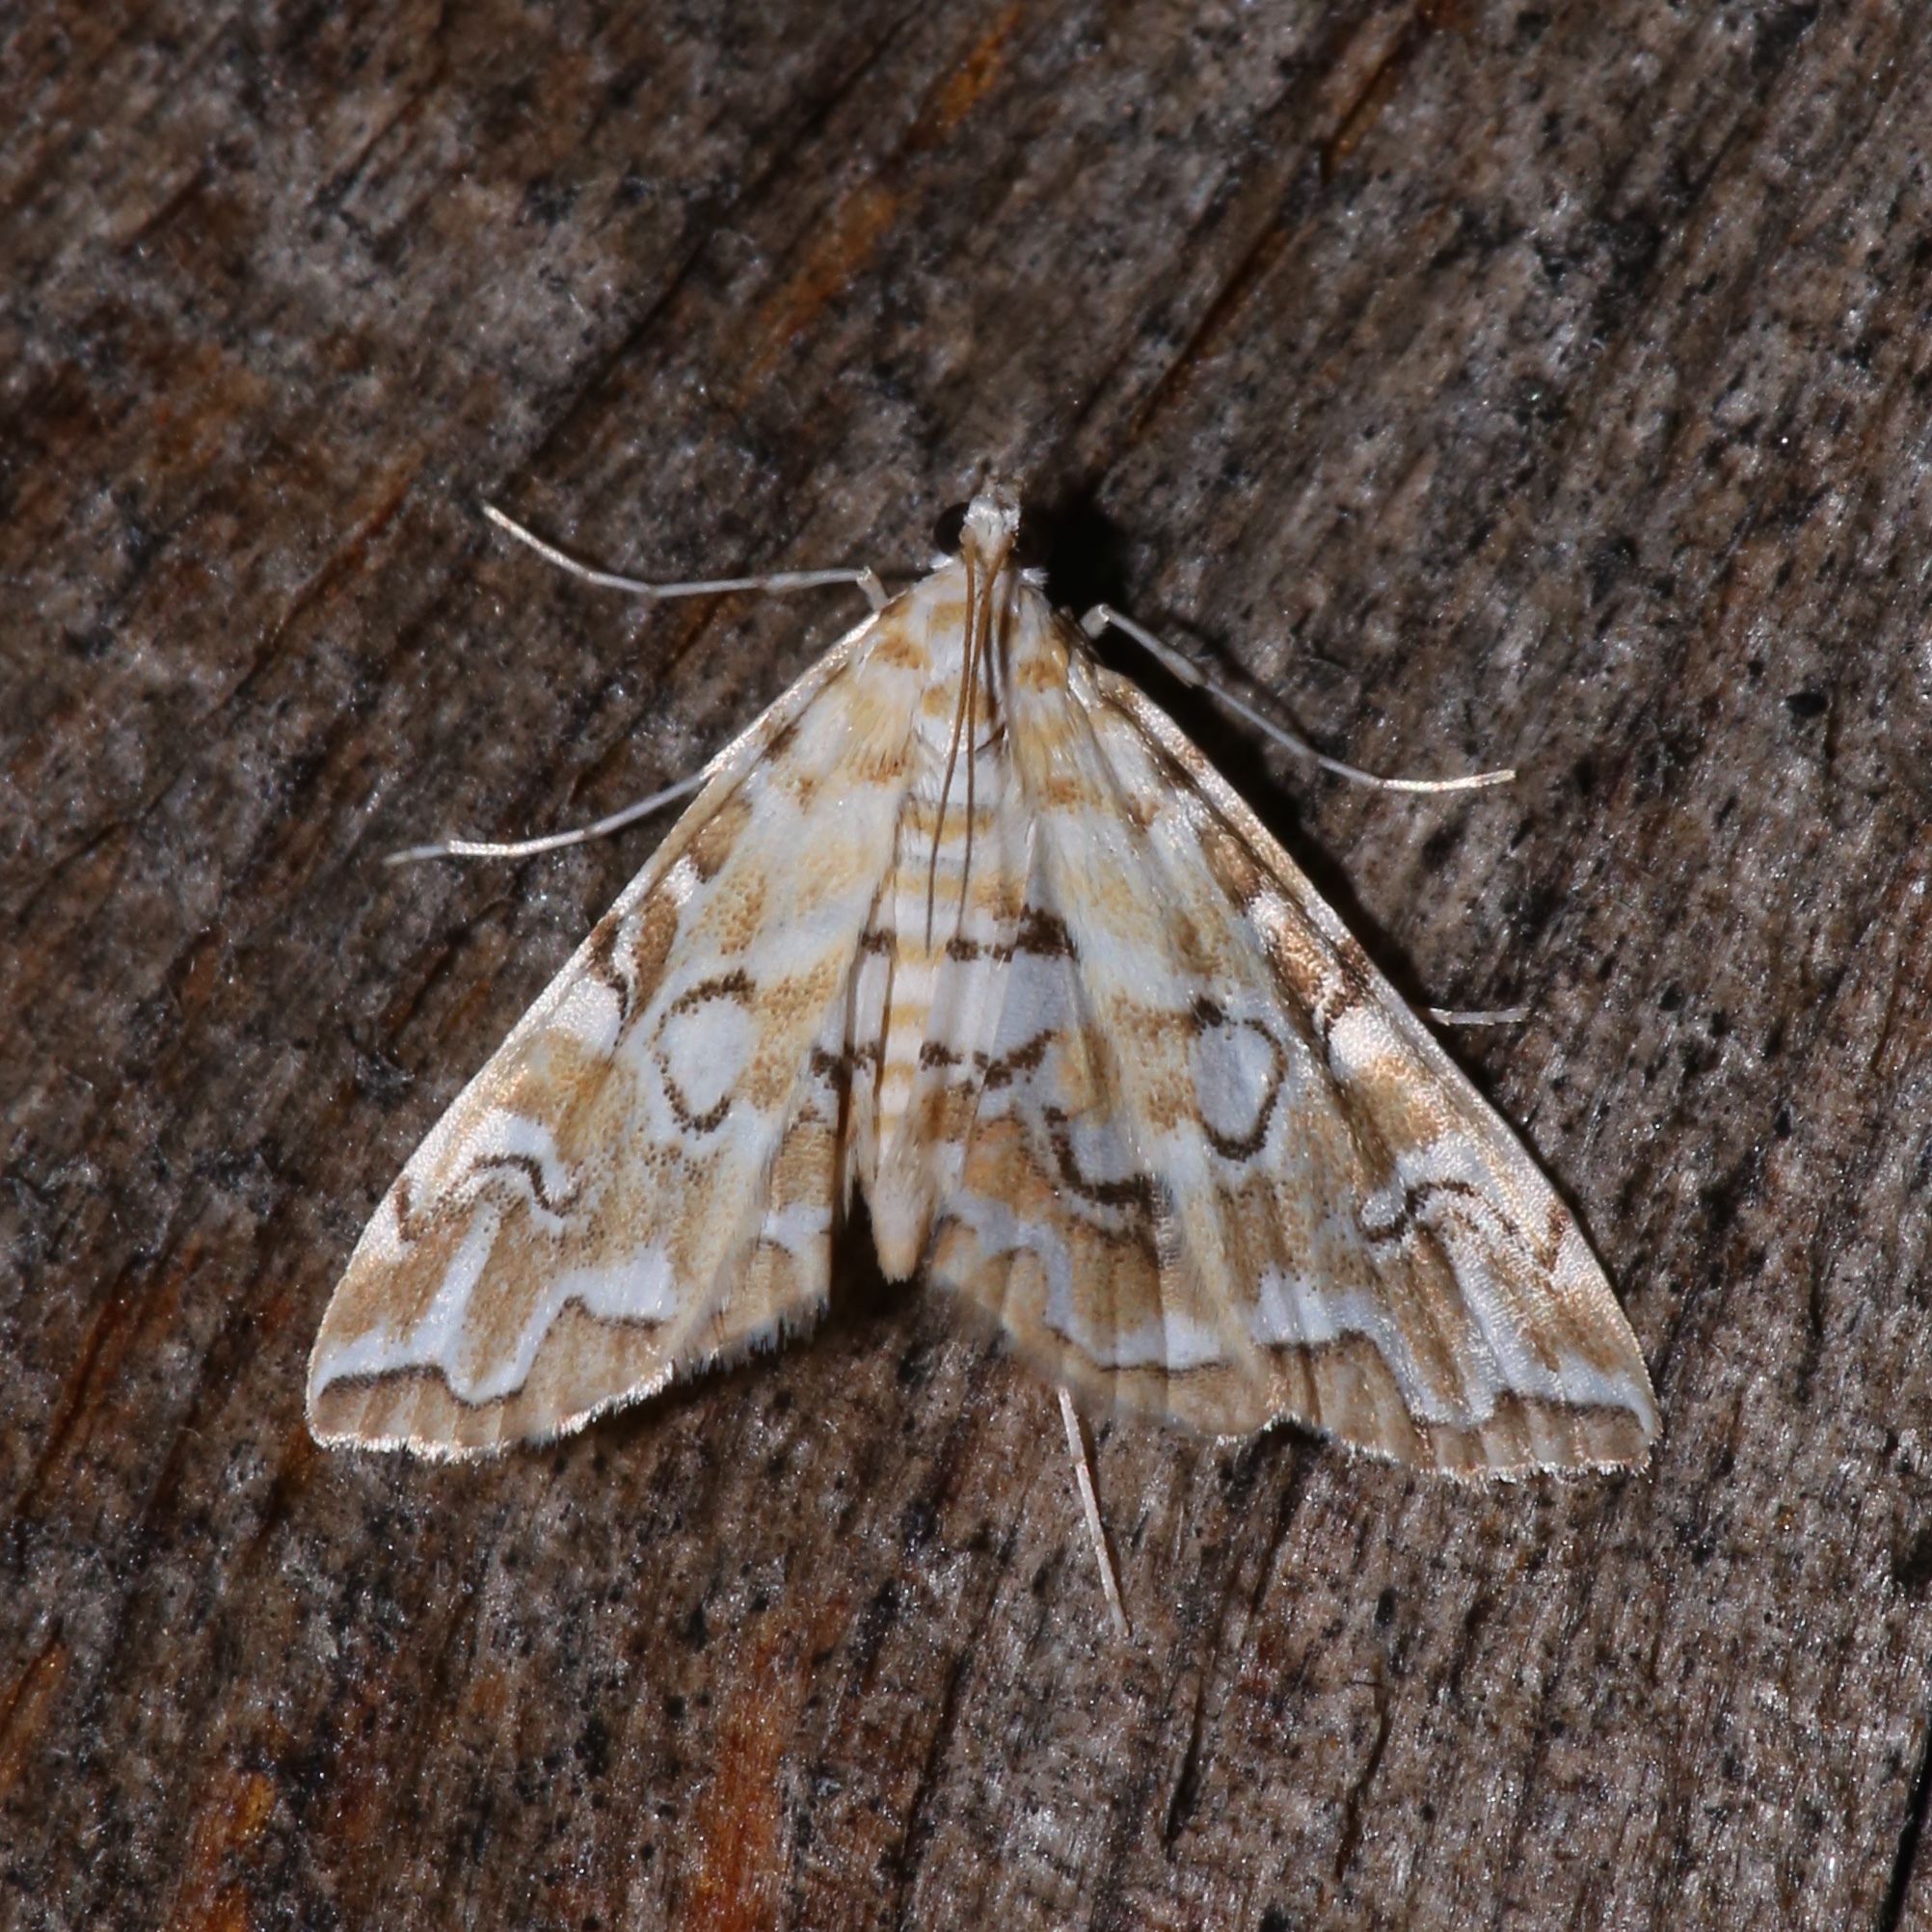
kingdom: Animalia
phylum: Arthropoda
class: Insecta
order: Lepidoptera
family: Crambidae
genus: Elophila
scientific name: Elophila icciusalis
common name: Pondside pyralid moth
